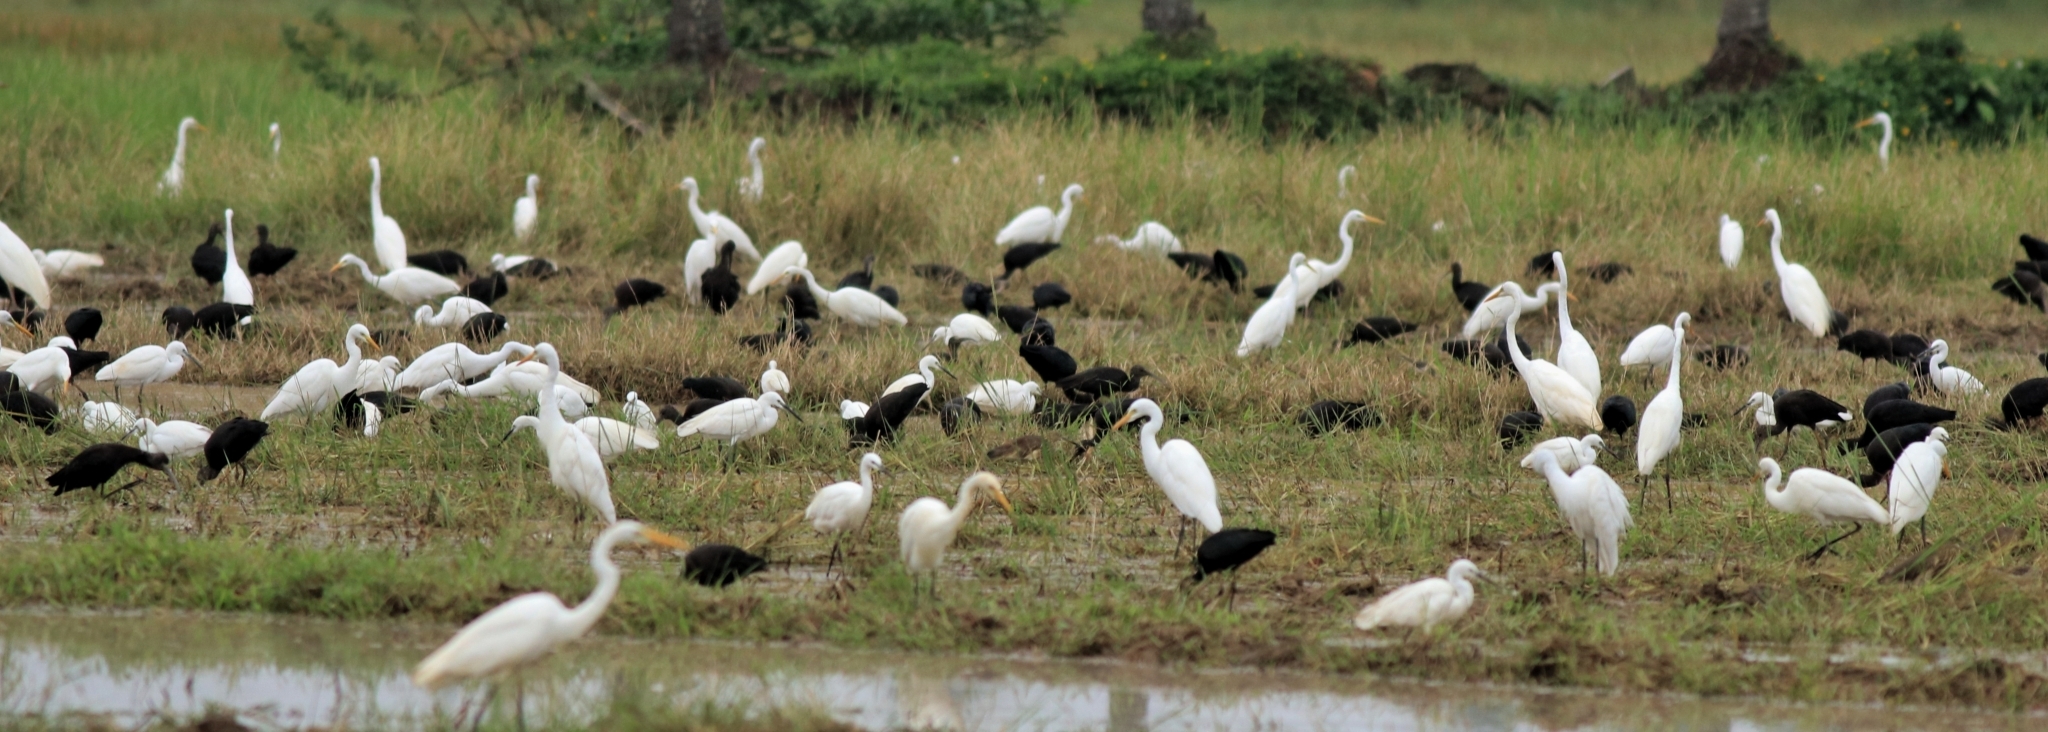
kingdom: Animalia
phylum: Chordata
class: Aves
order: Pelecaniformes
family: Threskiornithidae
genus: Plegadis
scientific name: Plegadis falcinellus
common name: Glossy ibis
